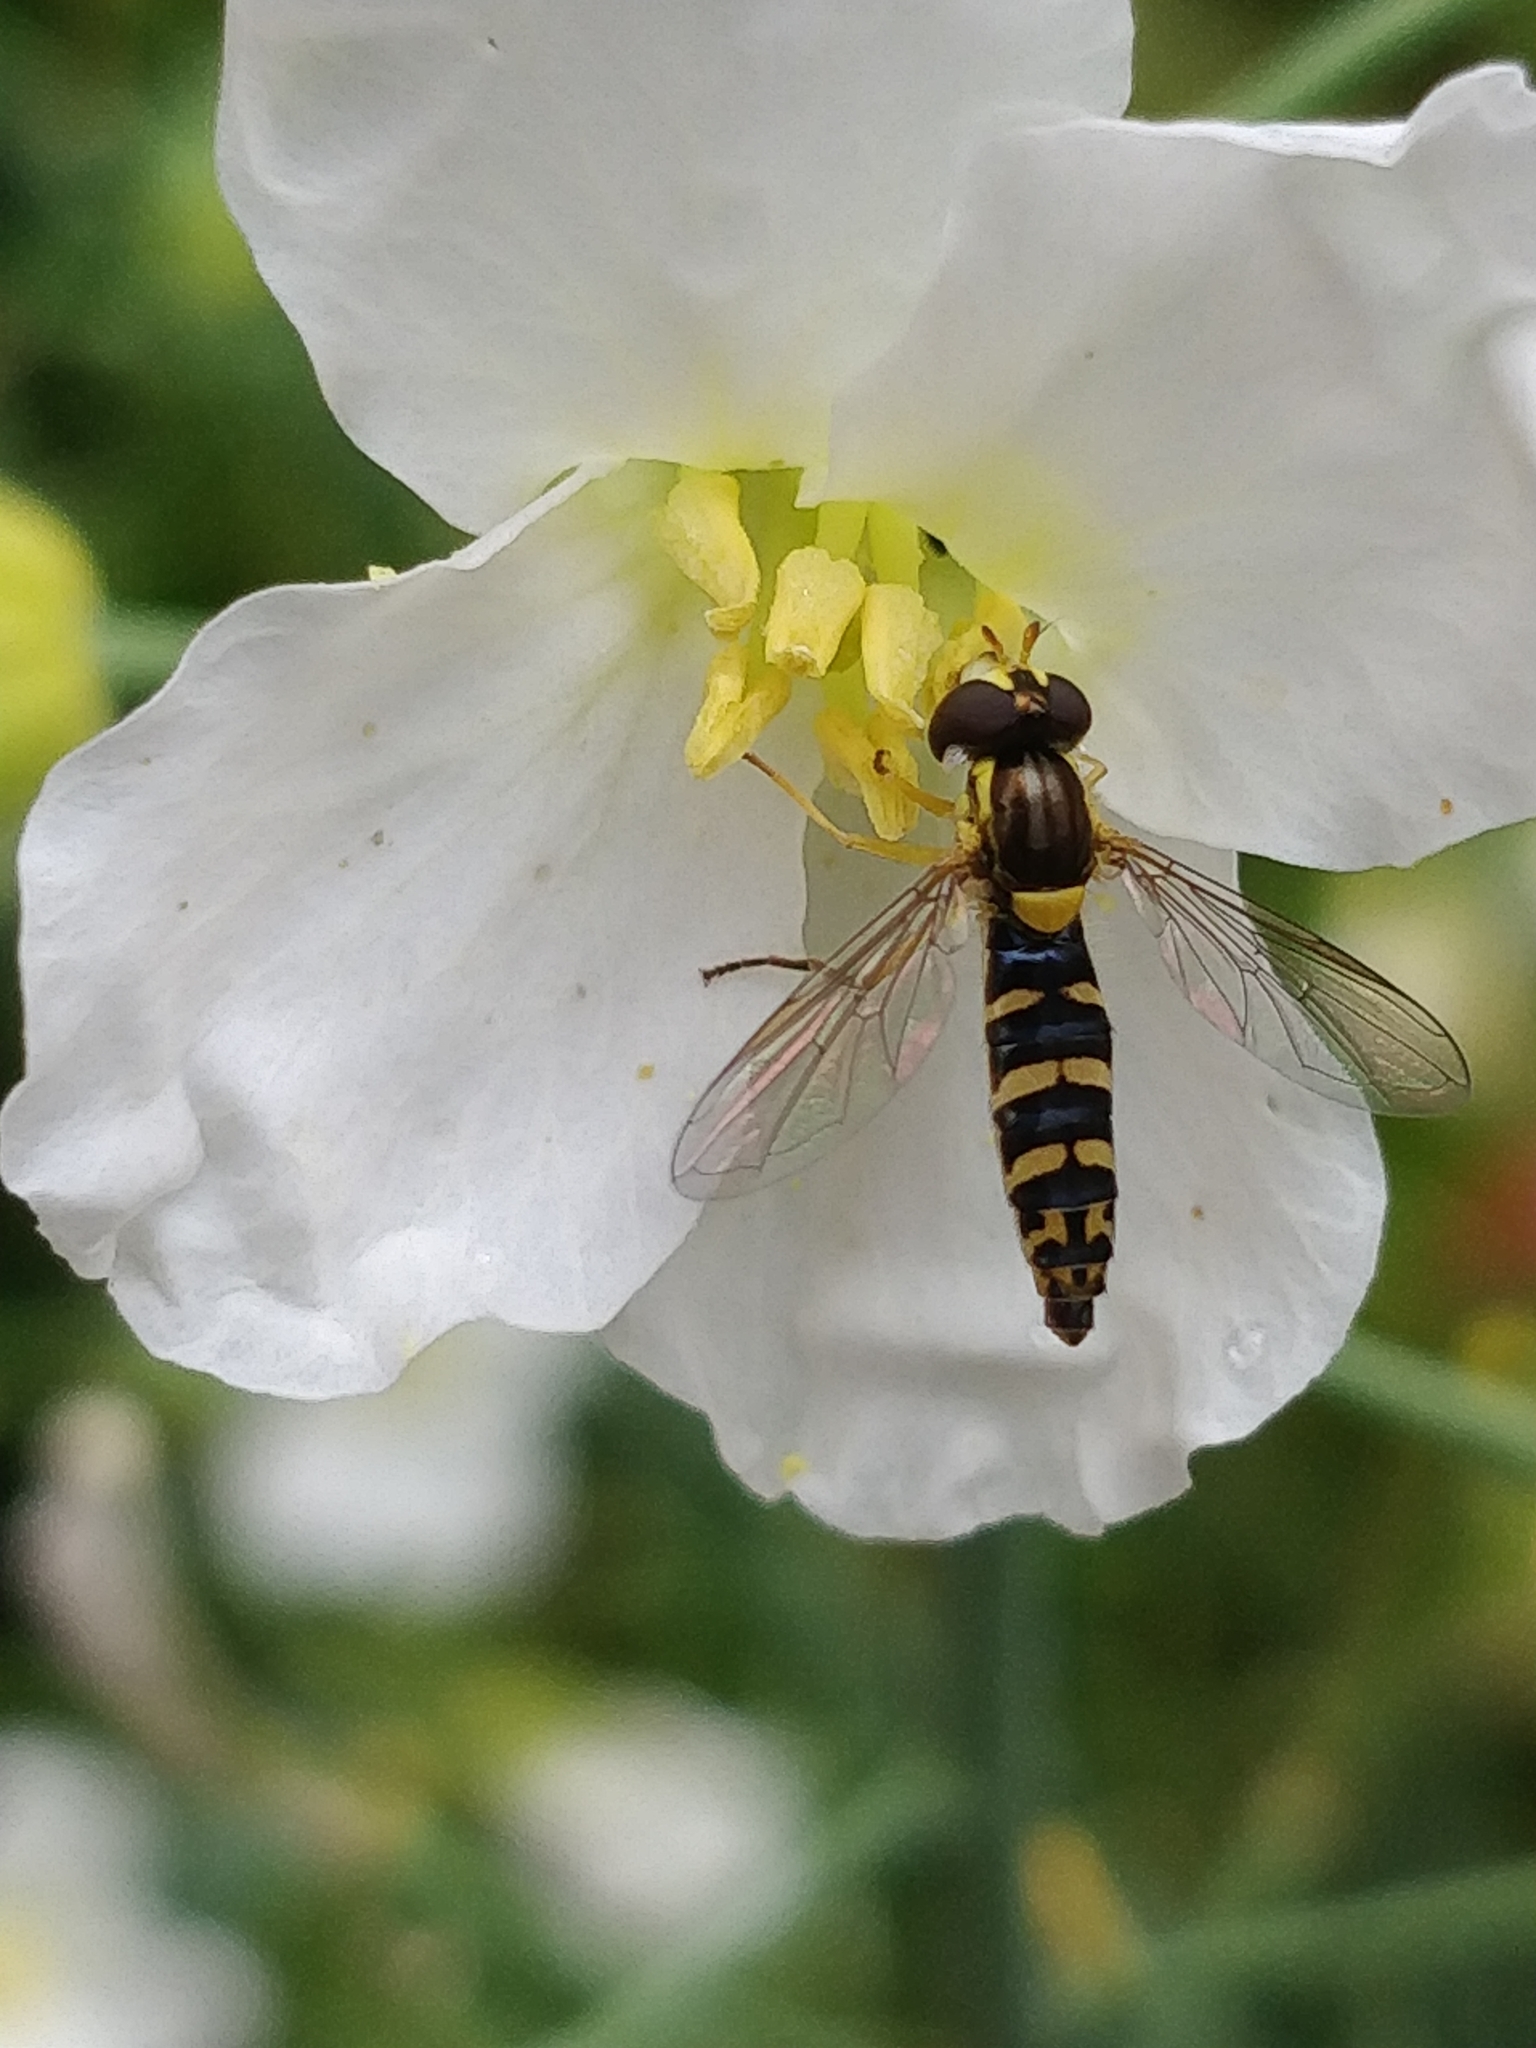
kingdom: Animalia
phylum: Arthropoda
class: Insecta
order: Diptera
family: Syrphidae
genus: Sphaerophoria
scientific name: Sphaerophoria scripta
